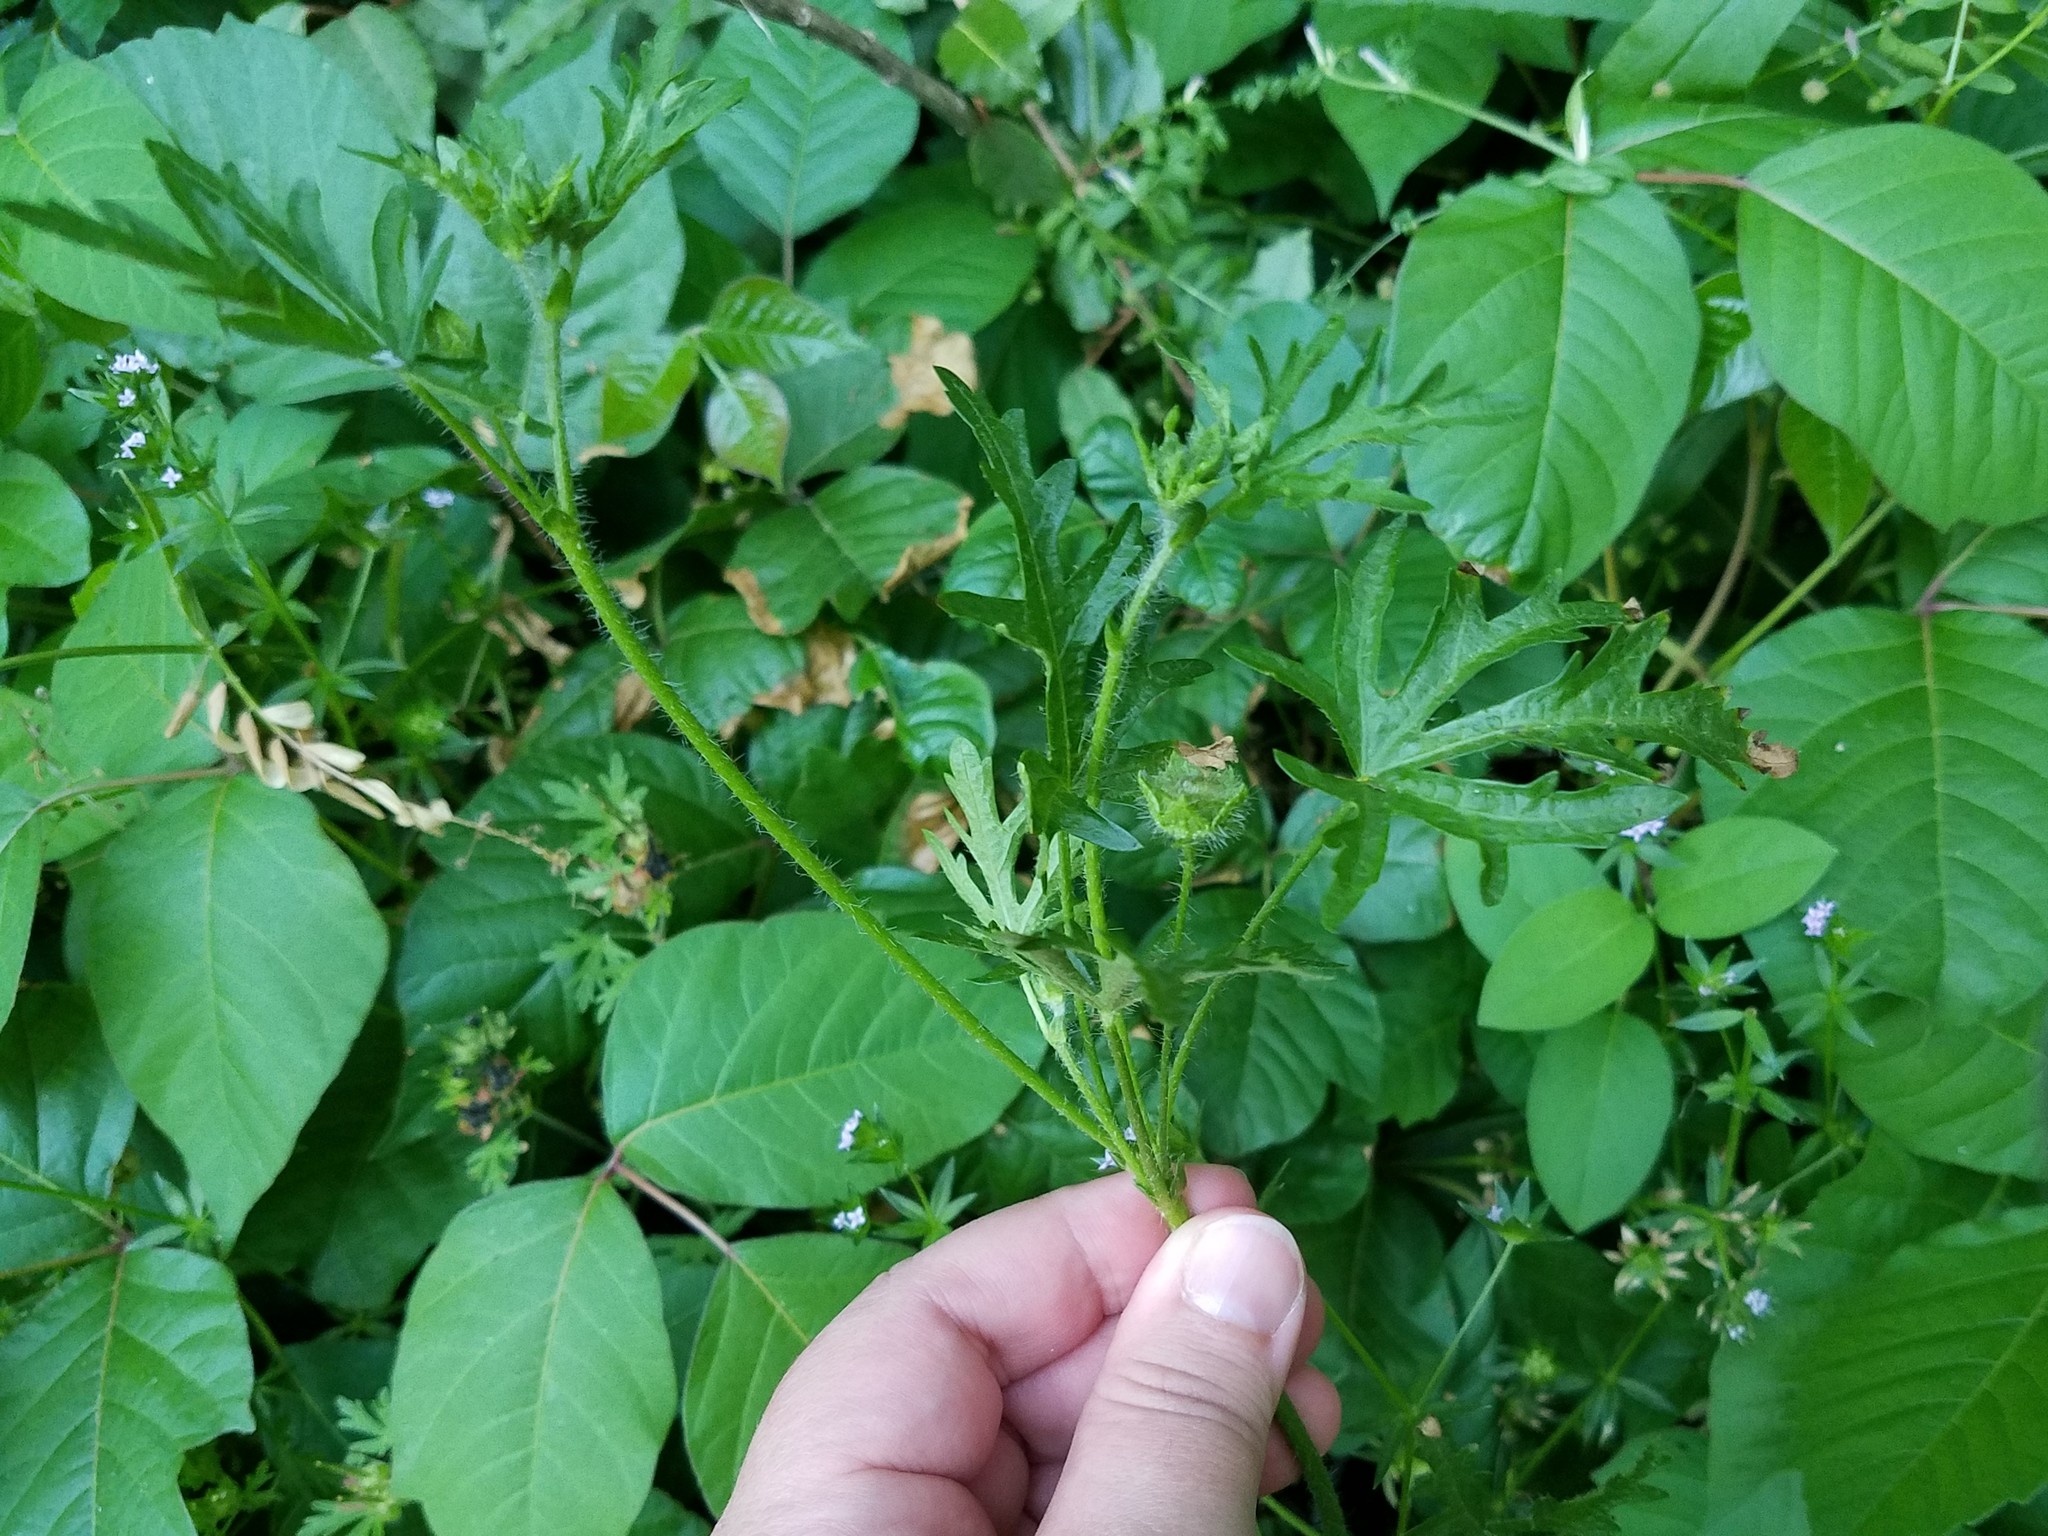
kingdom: Plantae
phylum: Tracheophyta
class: Magnoliopsida
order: Malvales
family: Malvaceae
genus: Modiola
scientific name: Modiola caroliniana
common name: Carolina bristlemallow
